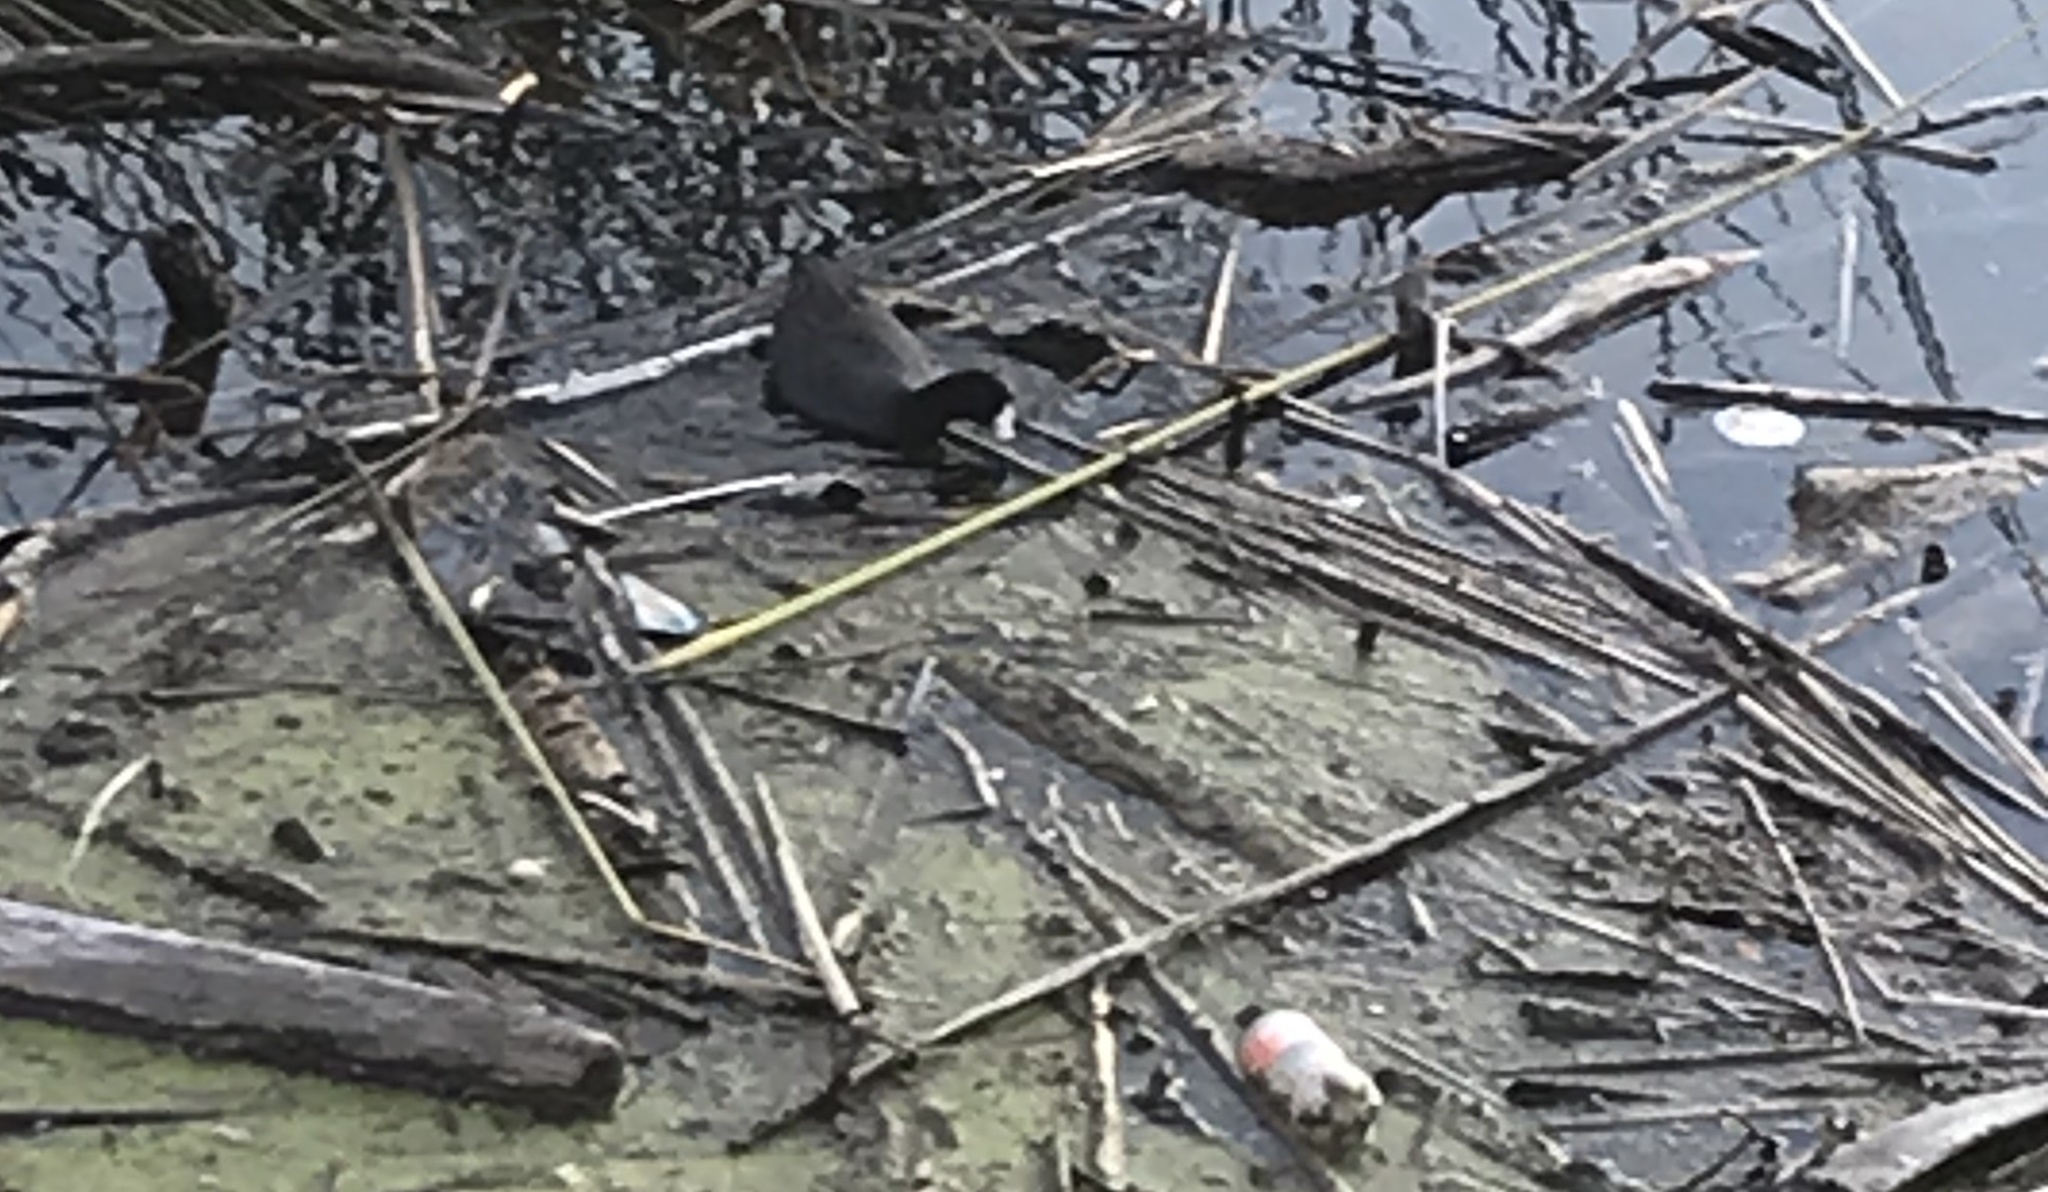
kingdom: Animalia
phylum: Chordata
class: Aves
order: Gruiformes
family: Rallidae
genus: Fulica
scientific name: Fulica americana
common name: American coot
